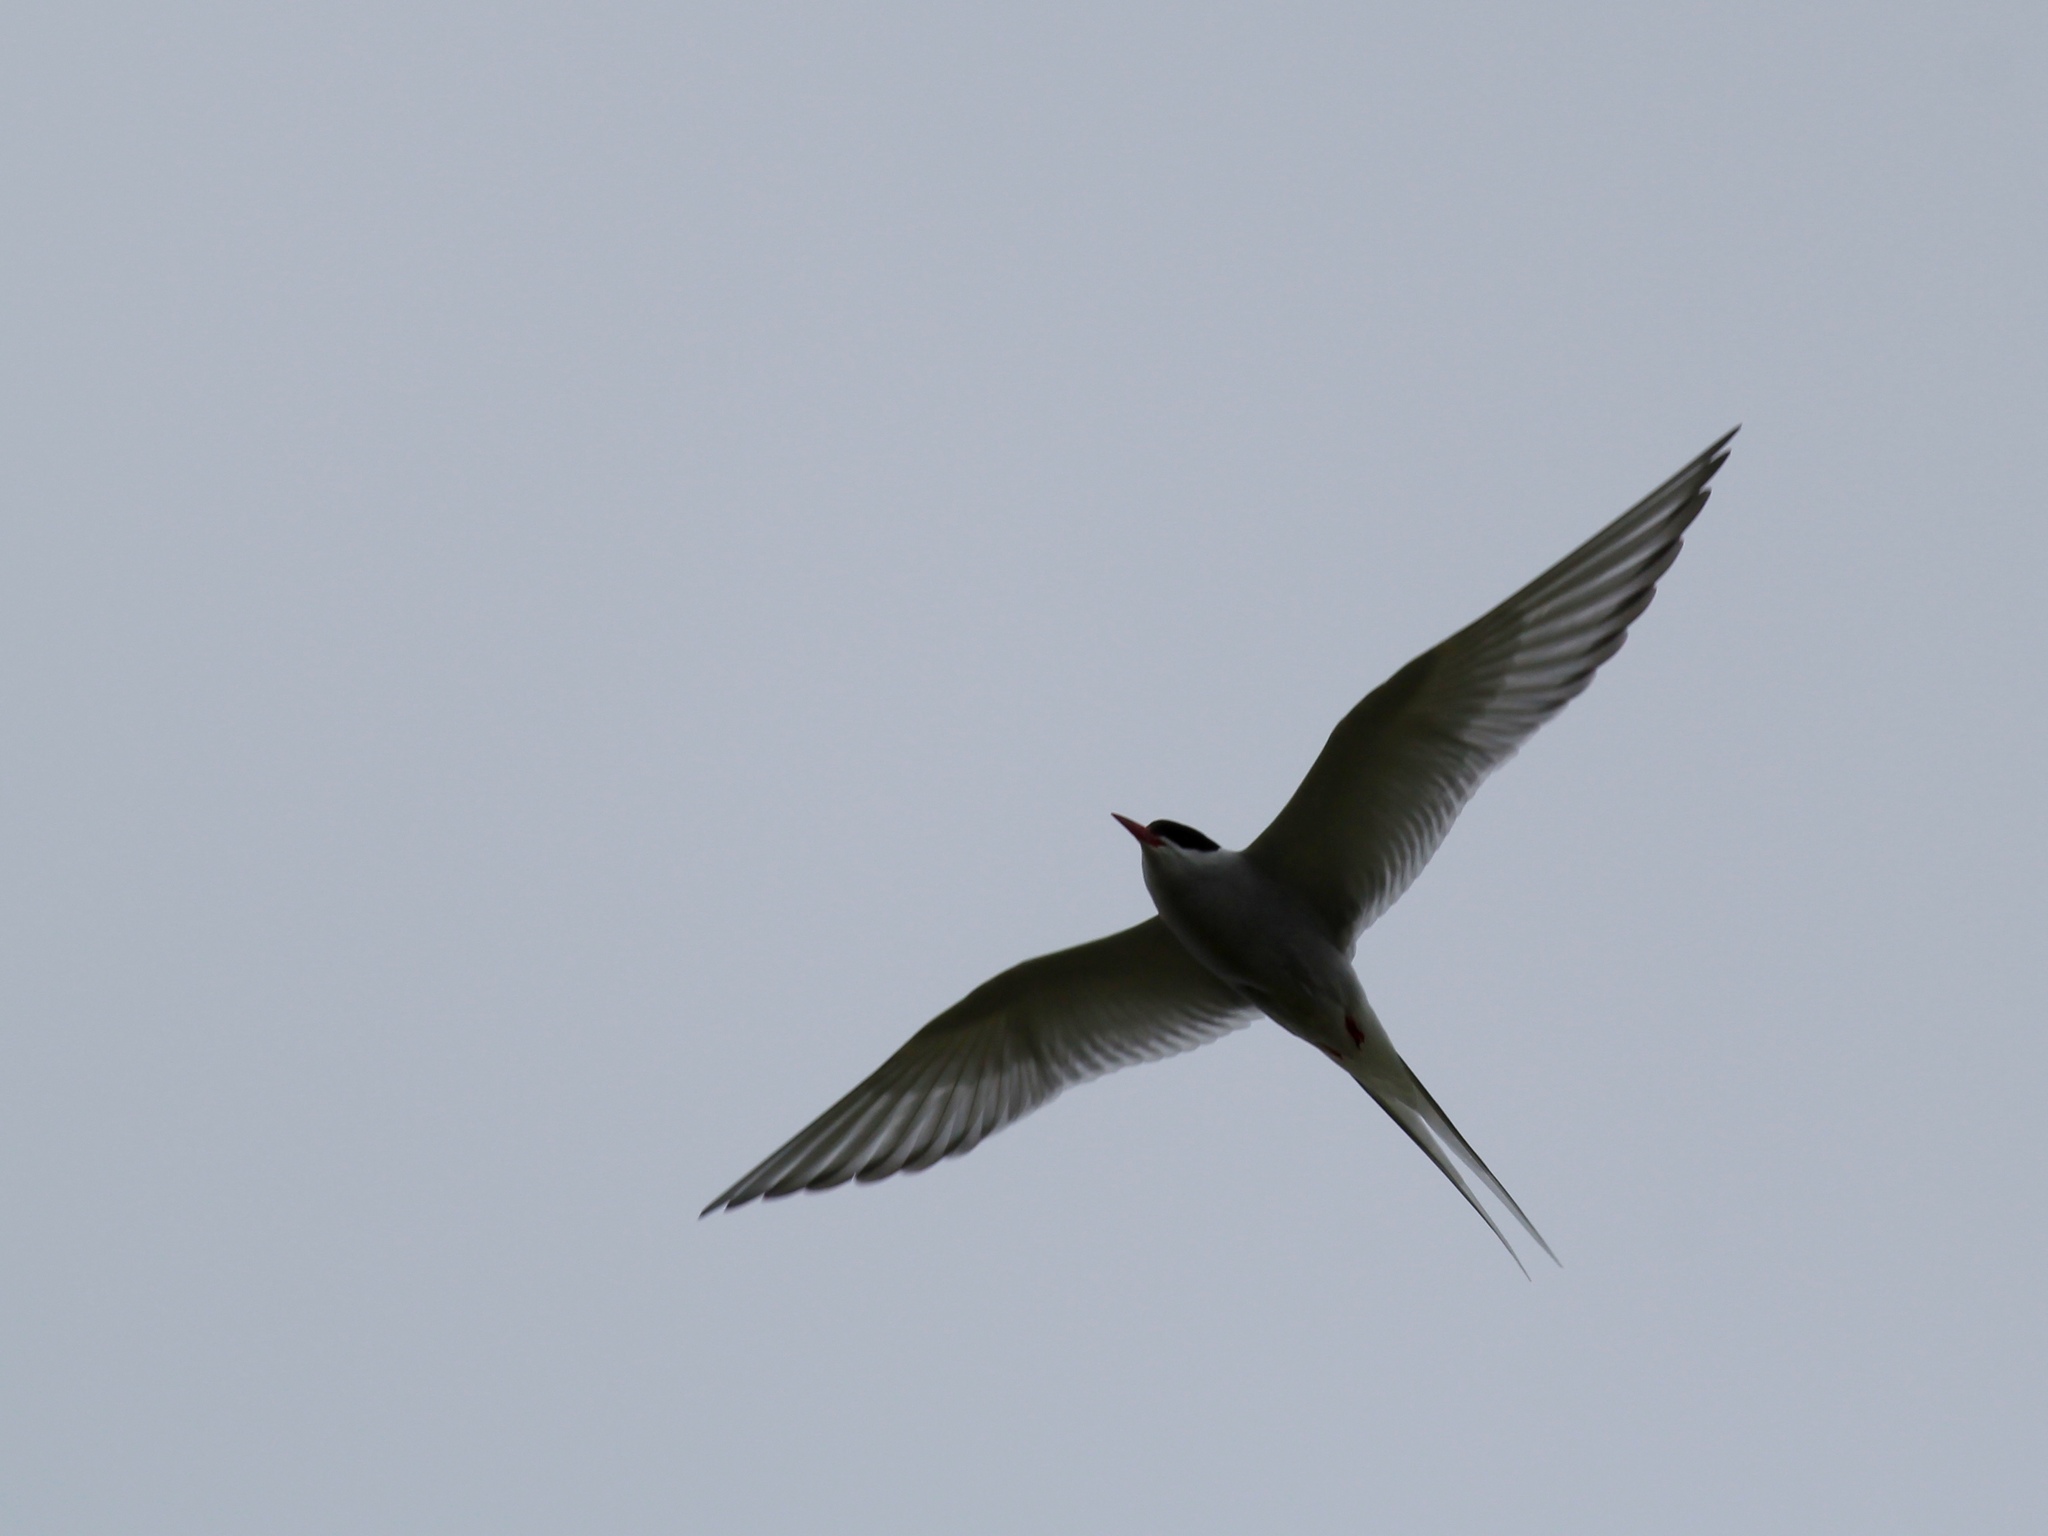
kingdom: Animalia
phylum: Chordata
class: Aves
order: Charadriiformes
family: Laridae
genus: Sterna
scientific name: Sterna paradisaea
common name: Arctic tern
